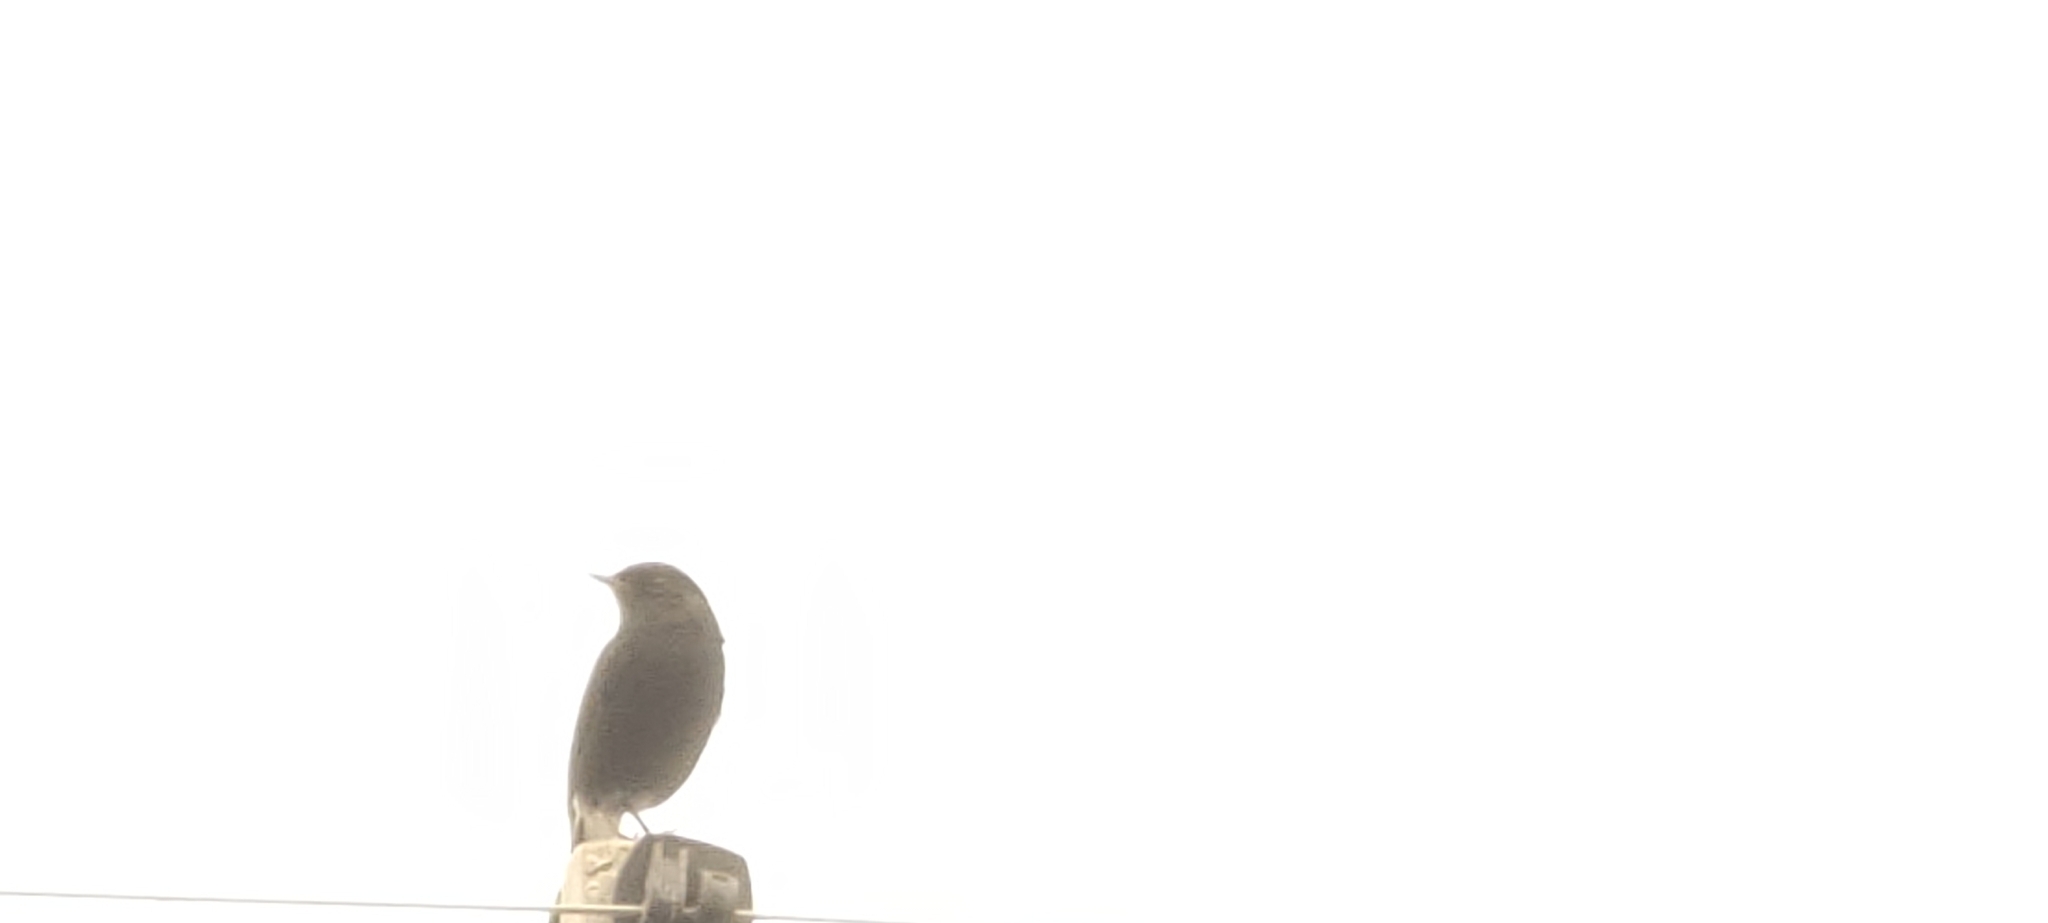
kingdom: Animalia
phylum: Chordata
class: Aves
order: Passeriformes
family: Muscicapidae
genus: Saxicola
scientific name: Saxicola caprata
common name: Pied bush chat
